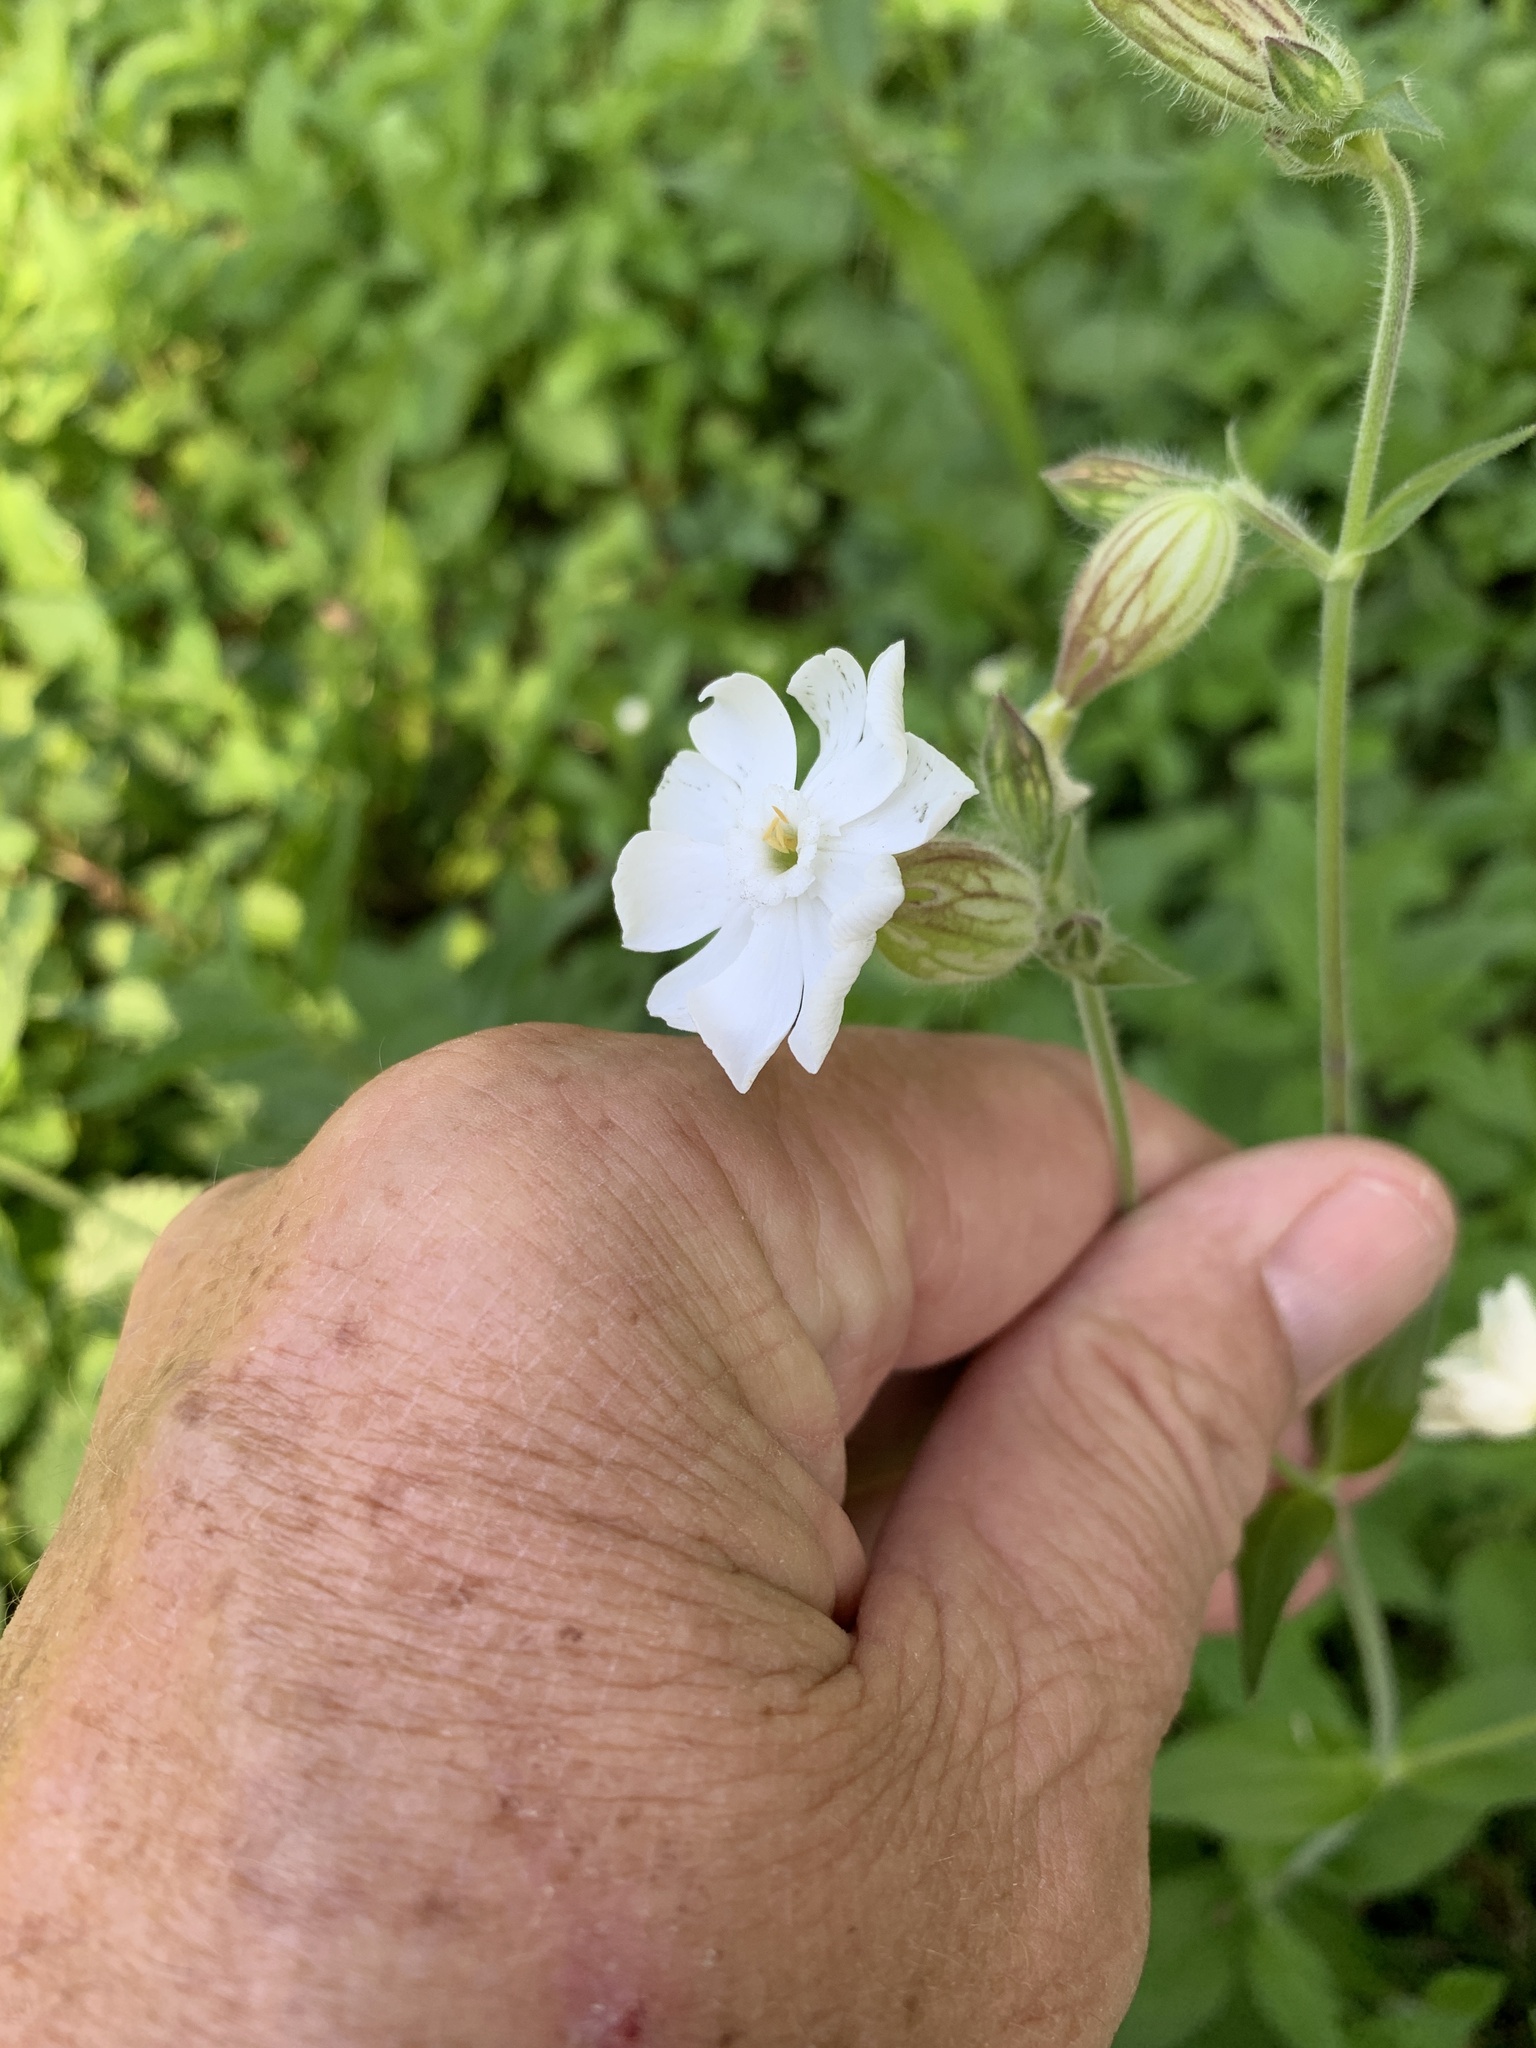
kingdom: Plantae
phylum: Tracheophyta
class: Magnoliopsida
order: Caryophyllales
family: Caryophyllaceae
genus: Silene
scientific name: Silene latifolia
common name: White campion
